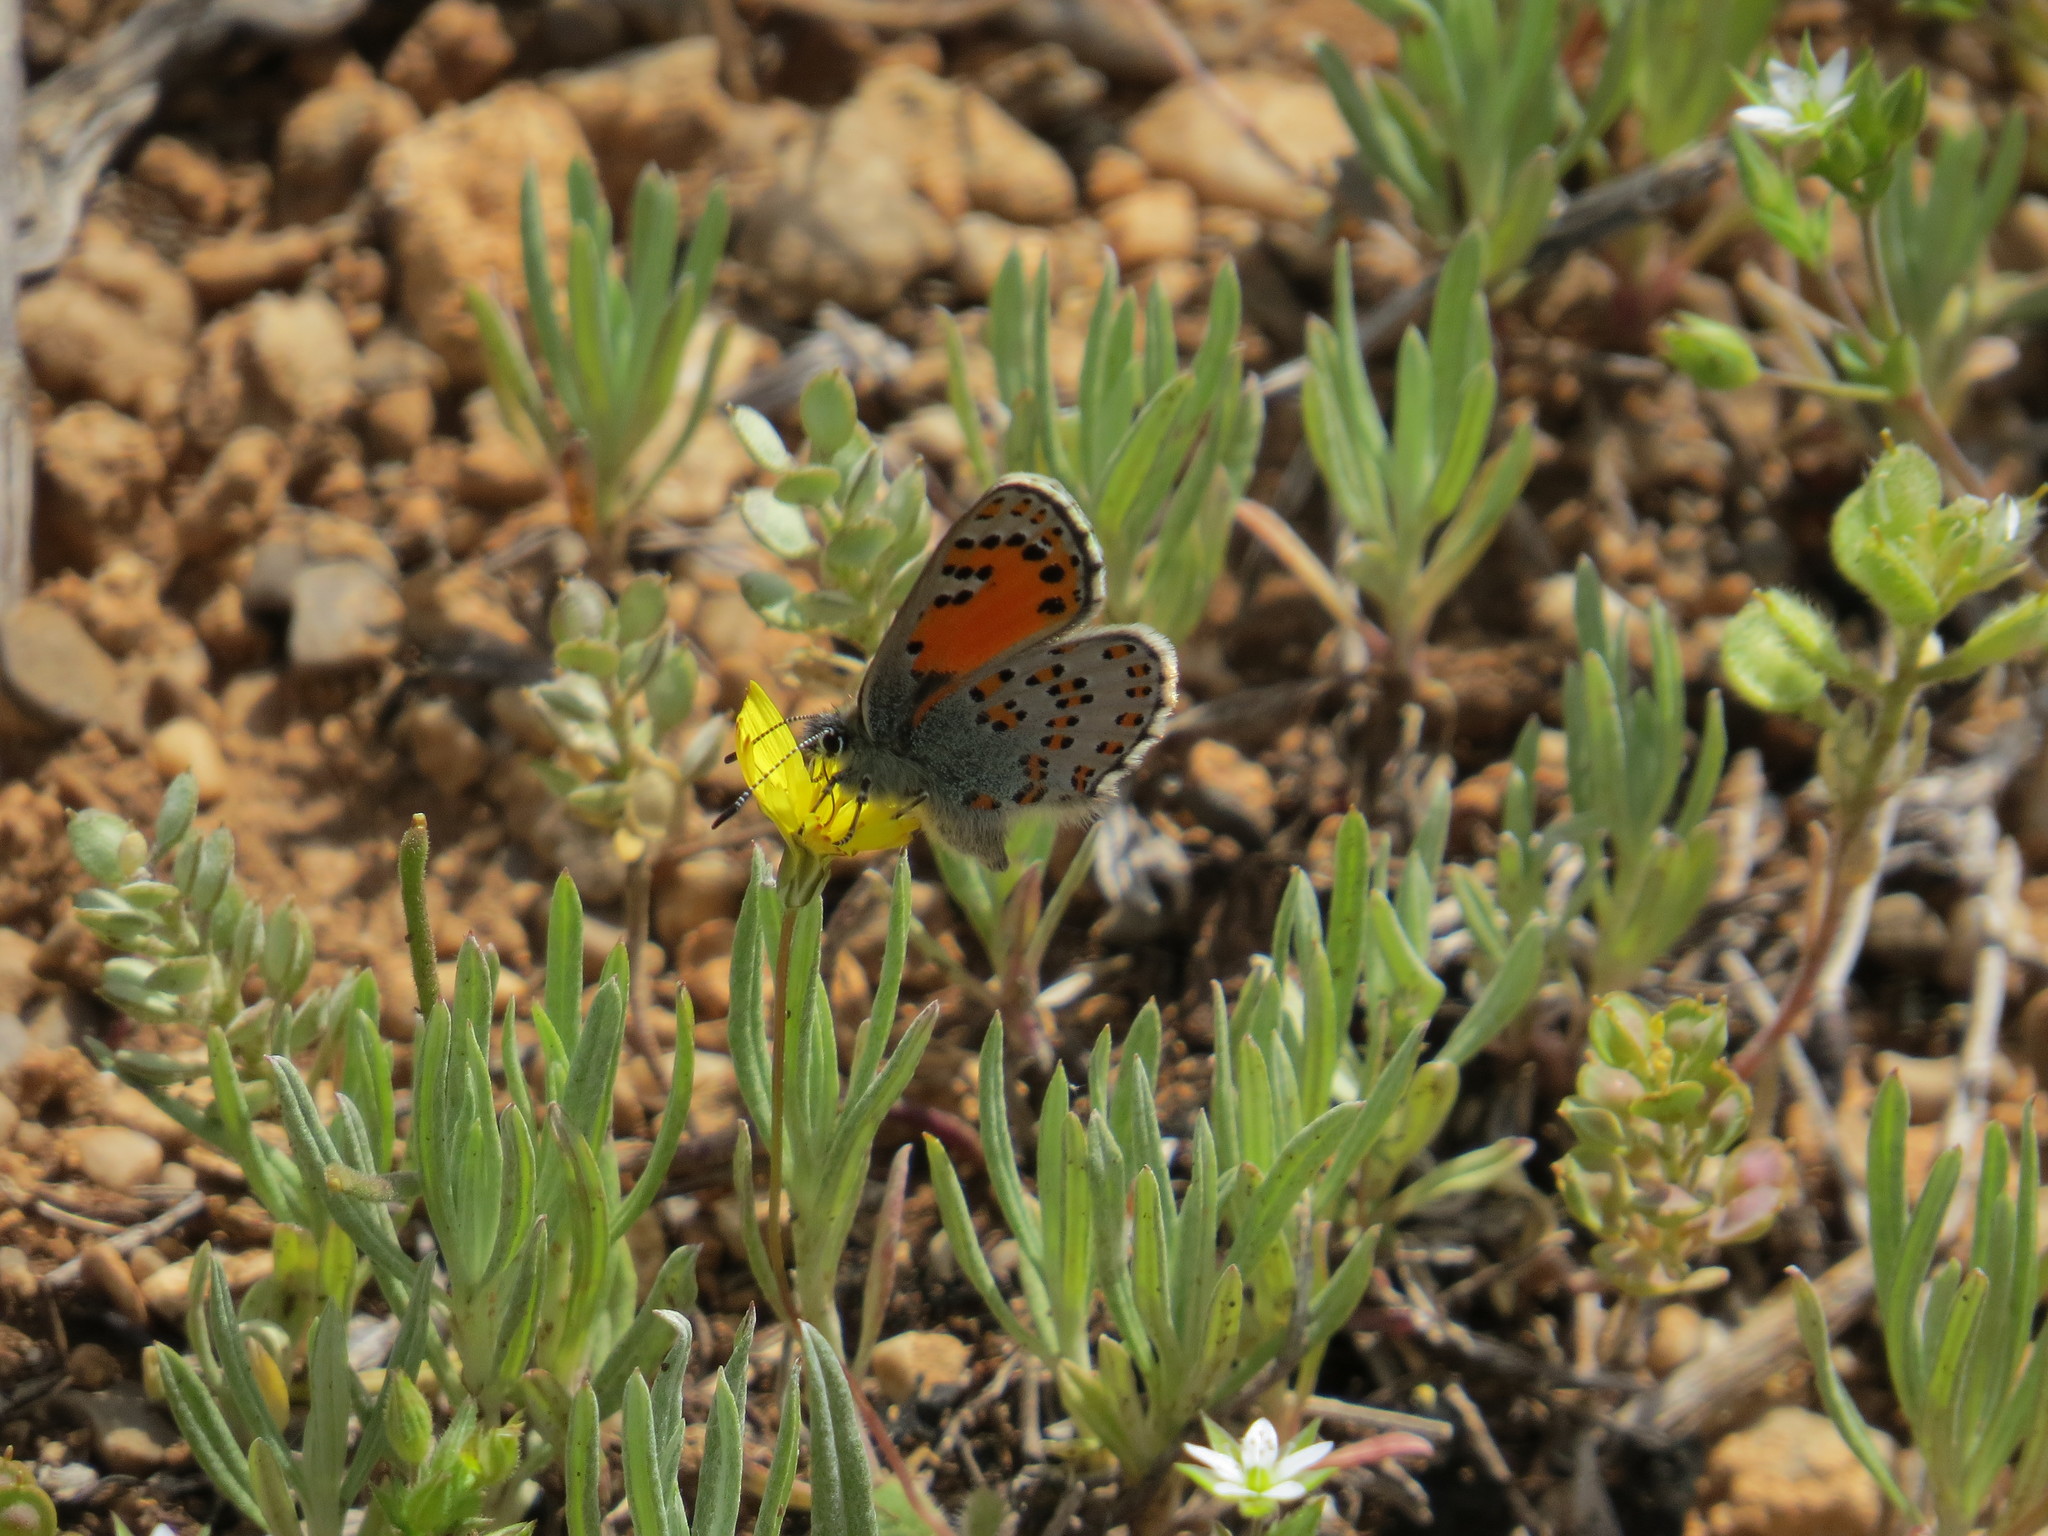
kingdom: Animalia
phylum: Arthropoda
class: Insecta
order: Lepidoptera
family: Lycaenidae
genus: Tomares
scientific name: Tomares nogelii
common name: Nogel's hairstreak
